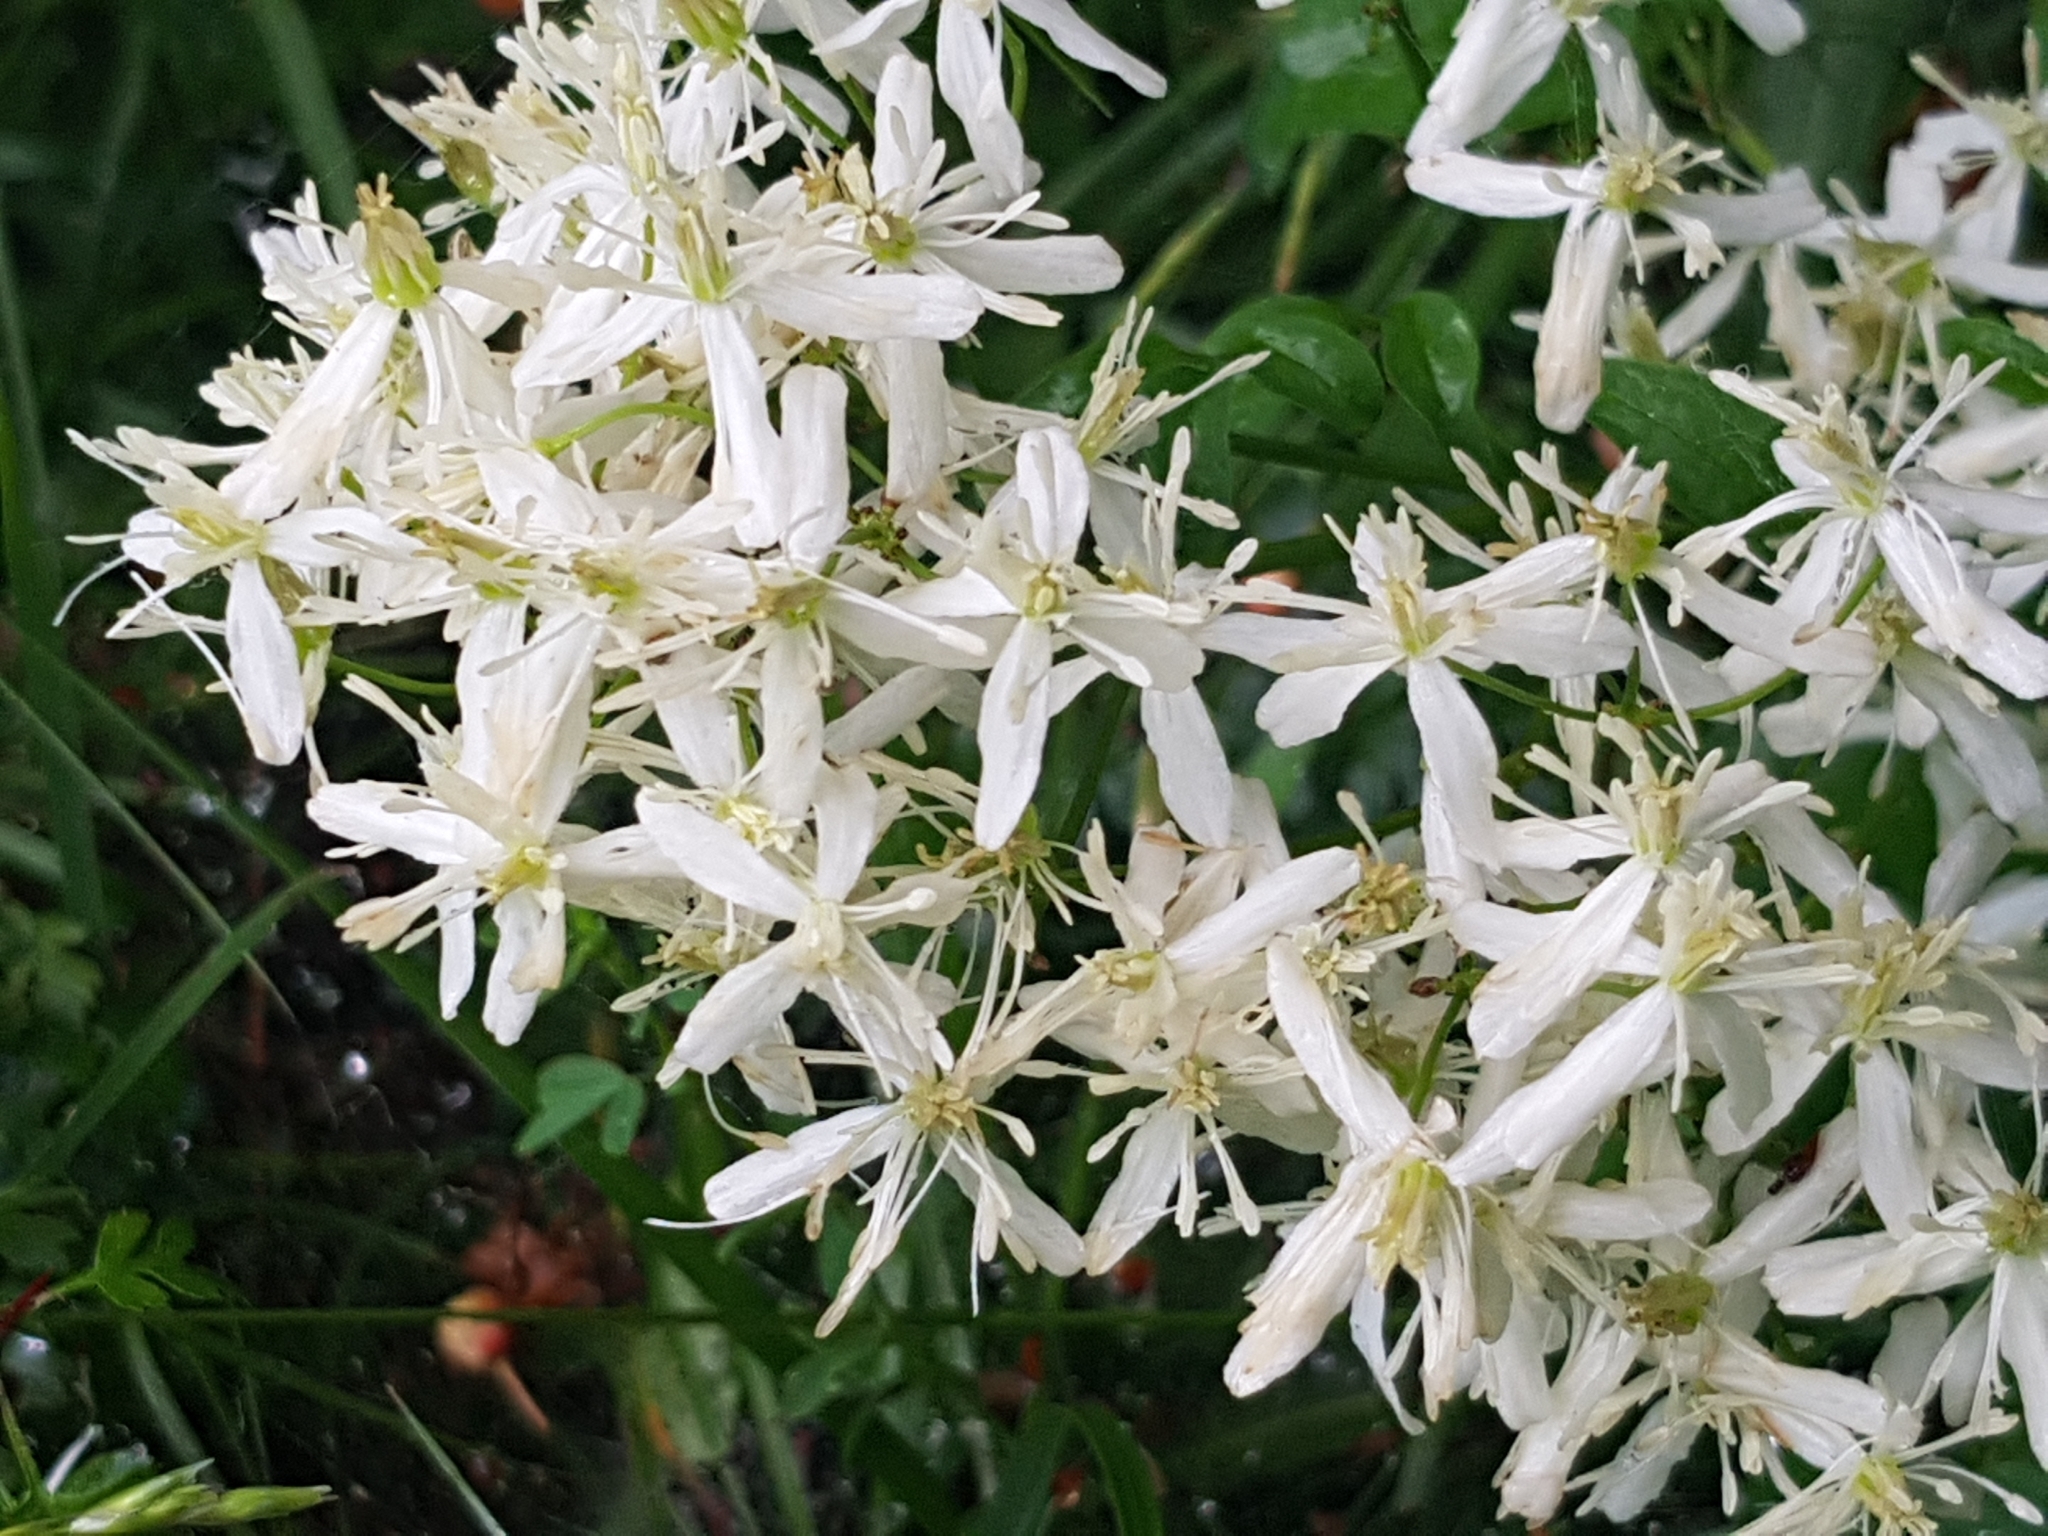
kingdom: Plantae
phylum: Tracheophyta
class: Magnoliopsida
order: Ranunculales
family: Ranunculaceae
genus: Clematis
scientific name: Clematis recta
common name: Ground clematis
